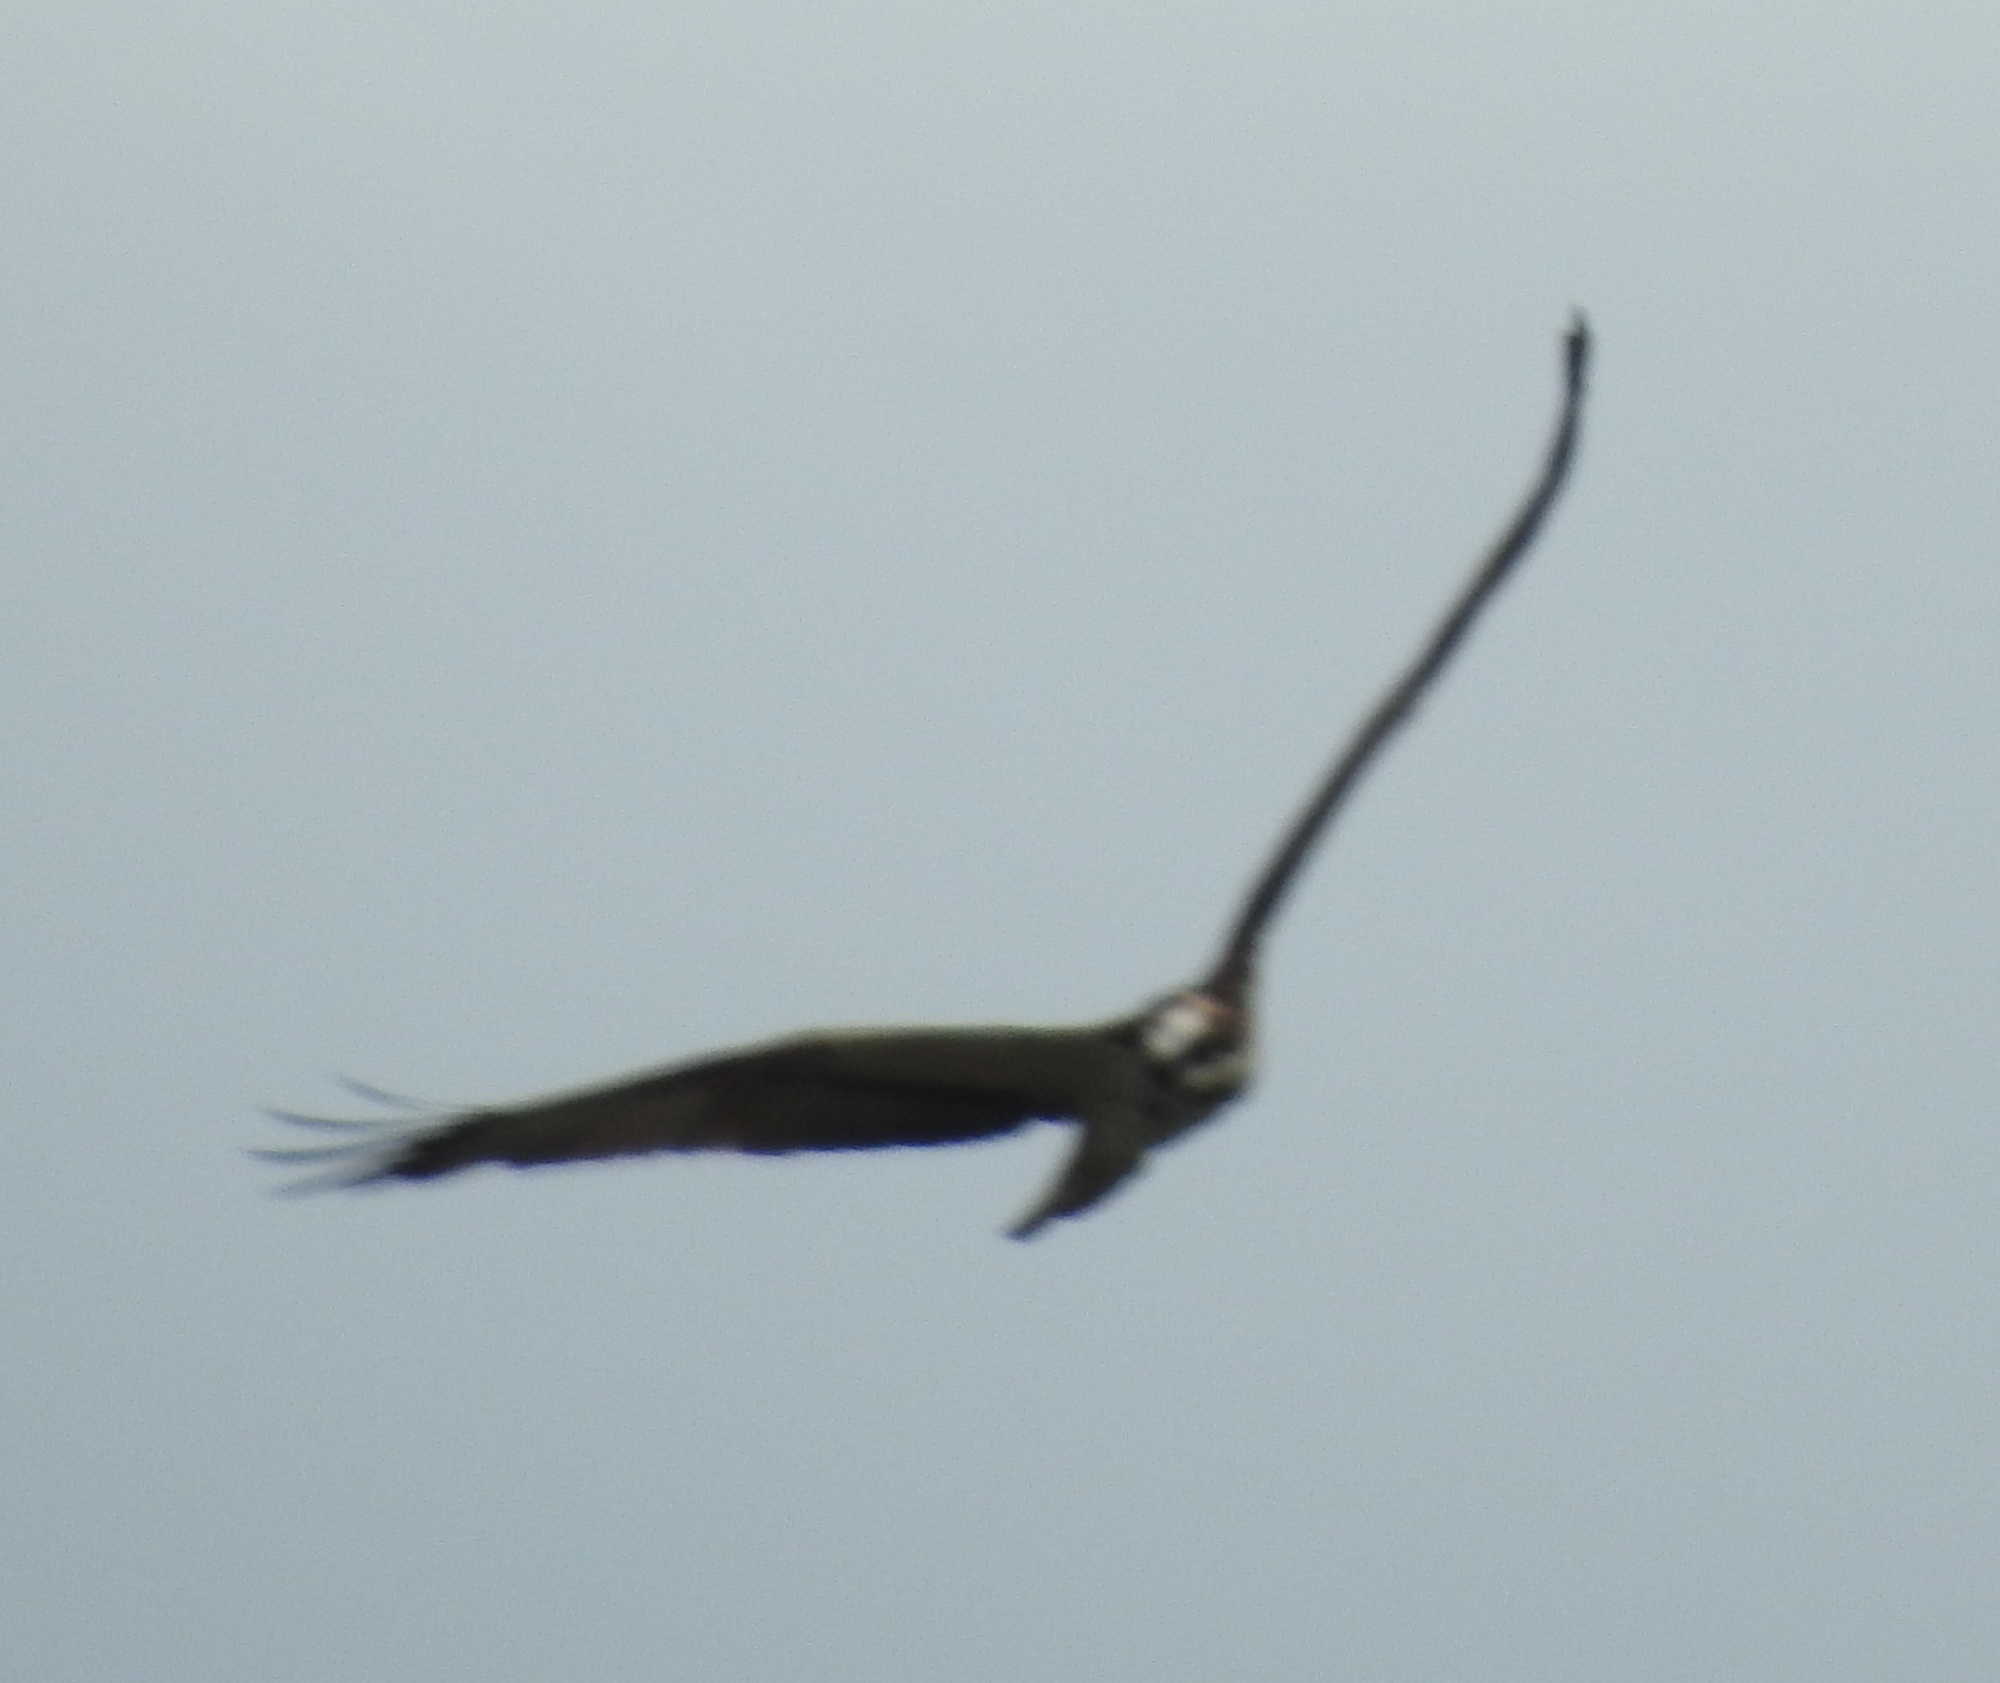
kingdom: Animalia
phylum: Chordata
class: Aves
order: Accipitriformes
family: Pandionidae
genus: Pandion
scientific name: Pandion haliaetus
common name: Osprey
